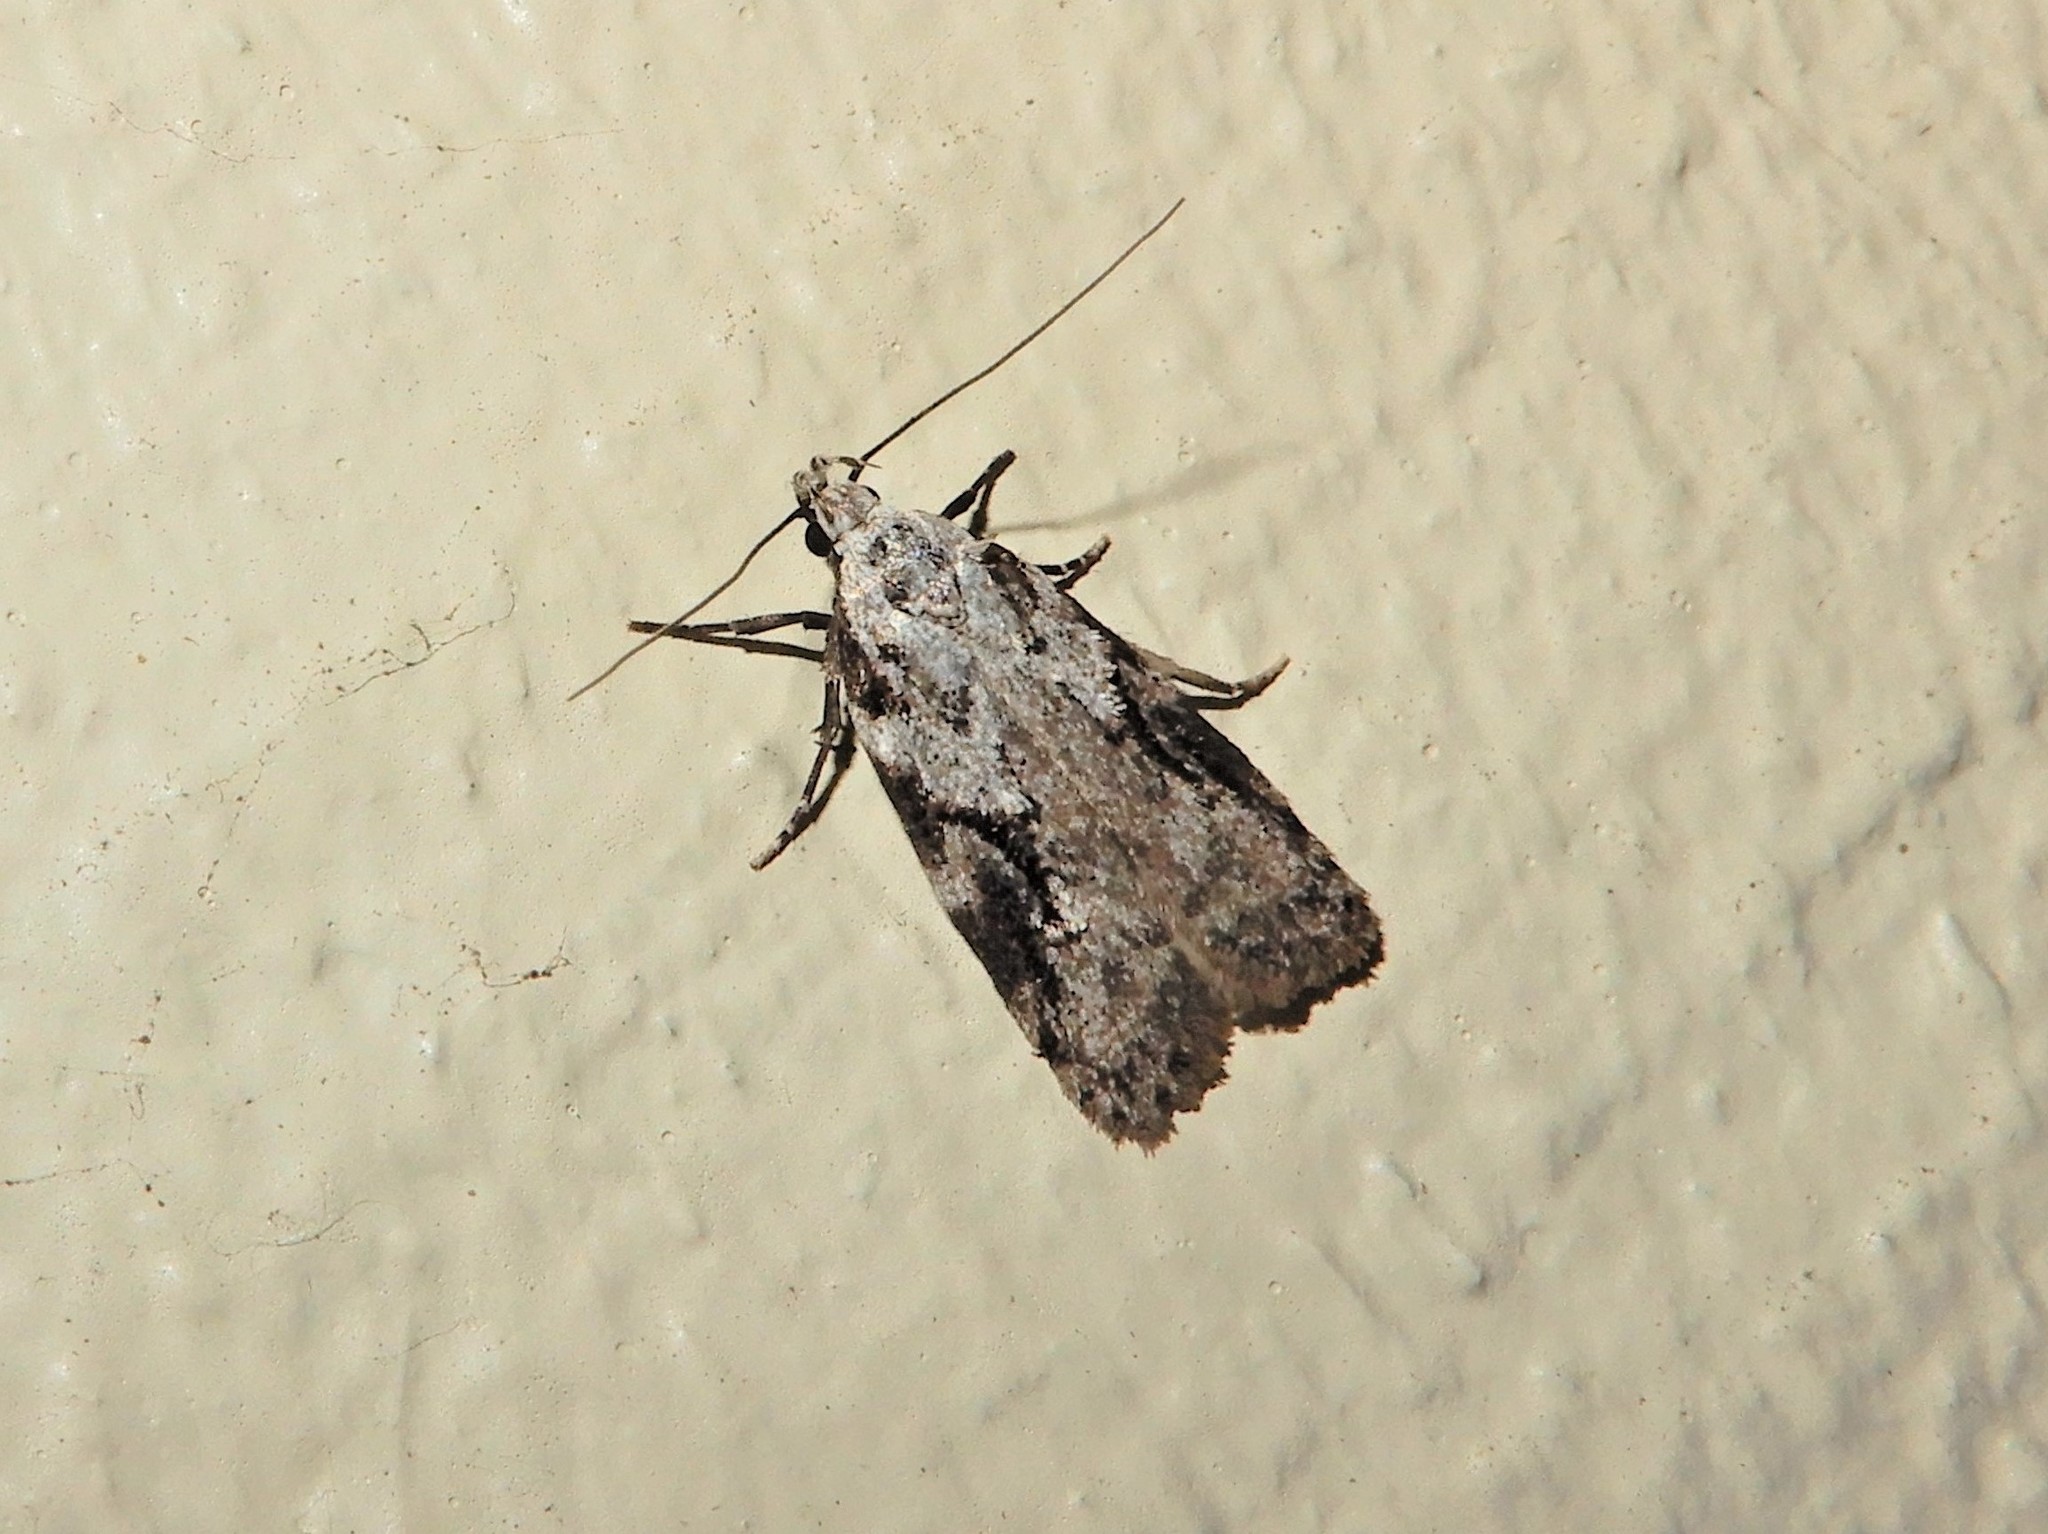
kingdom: Animalia
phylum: Arthropoda
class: Insecta
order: Lepidoptera
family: Oecophoridae
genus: Izatha
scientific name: Izatha mesoschista
